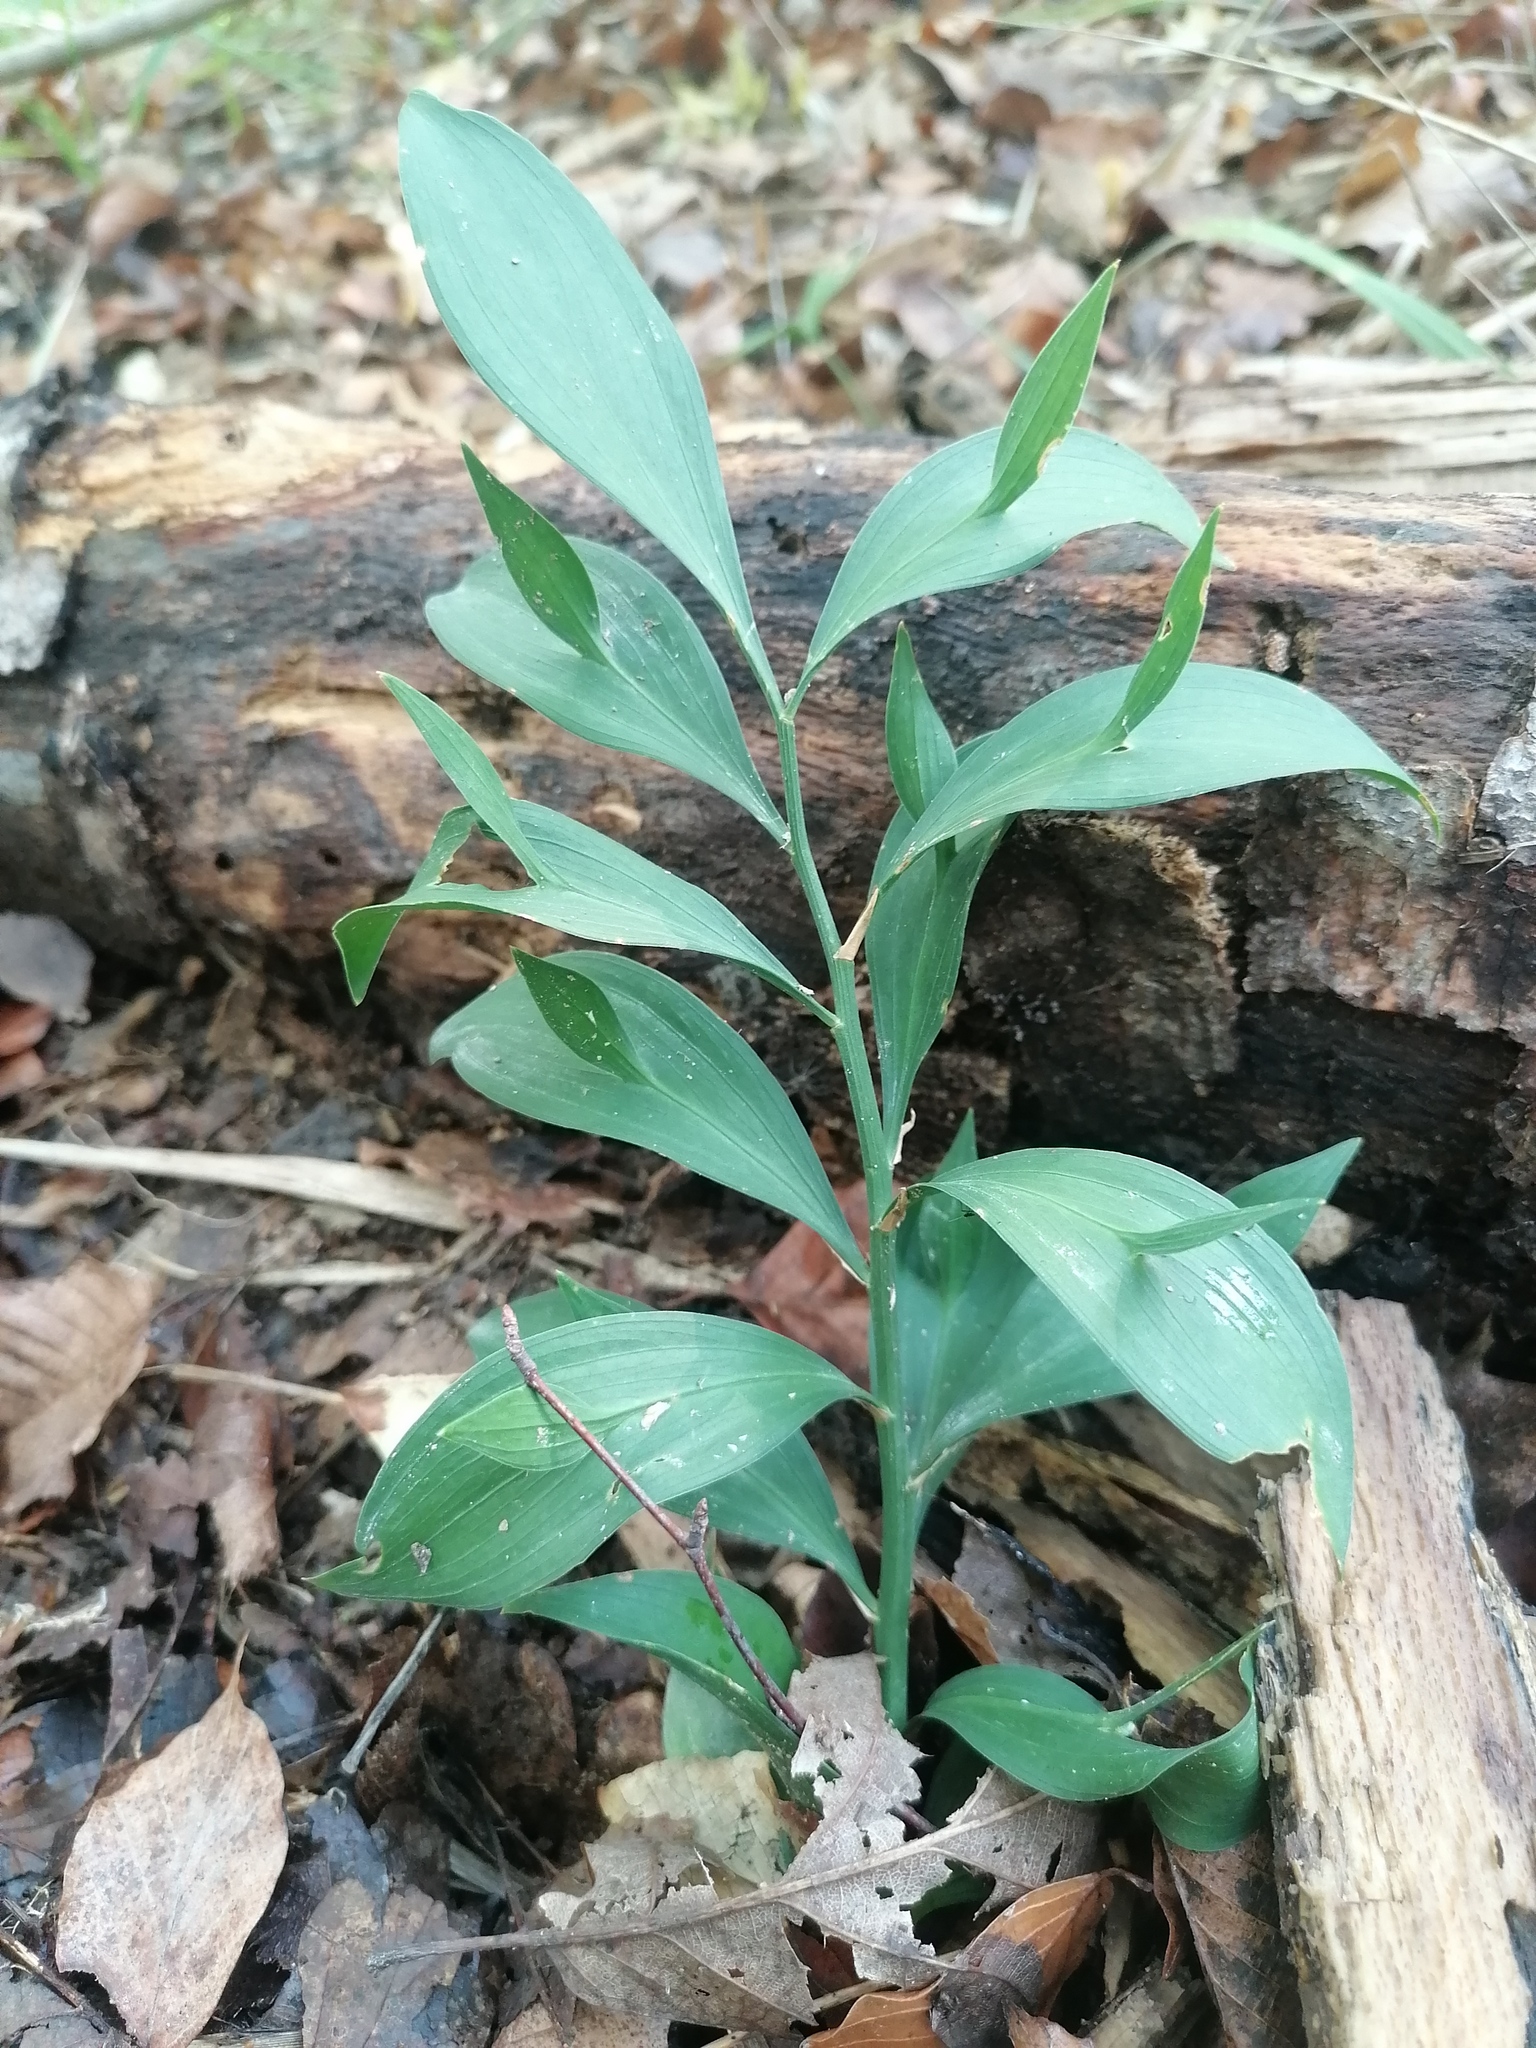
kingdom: Plantae
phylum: Tracheophyta
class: Liliopsida
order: Asparagales
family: Asparagaceae
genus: Ruscus
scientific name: Ruscus hypoglossum
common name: Spineless butcher's-broom
